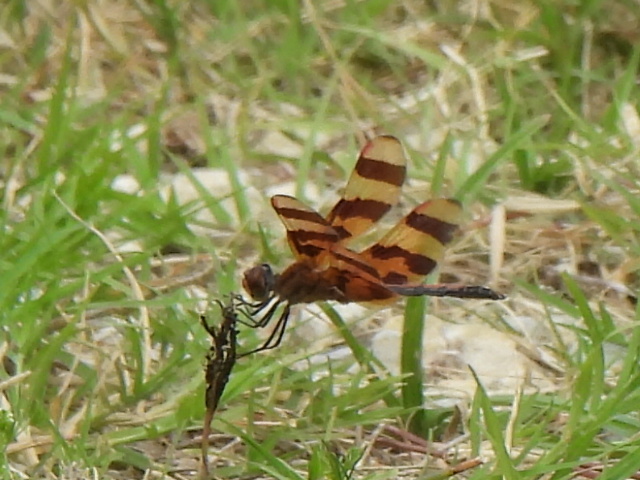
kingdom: Animalia
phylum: Arthropoda
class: Insecta
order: Odonata
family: Libellulidae
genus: Celithemis
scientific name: Celithemis eponina
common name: Halloween pennant
